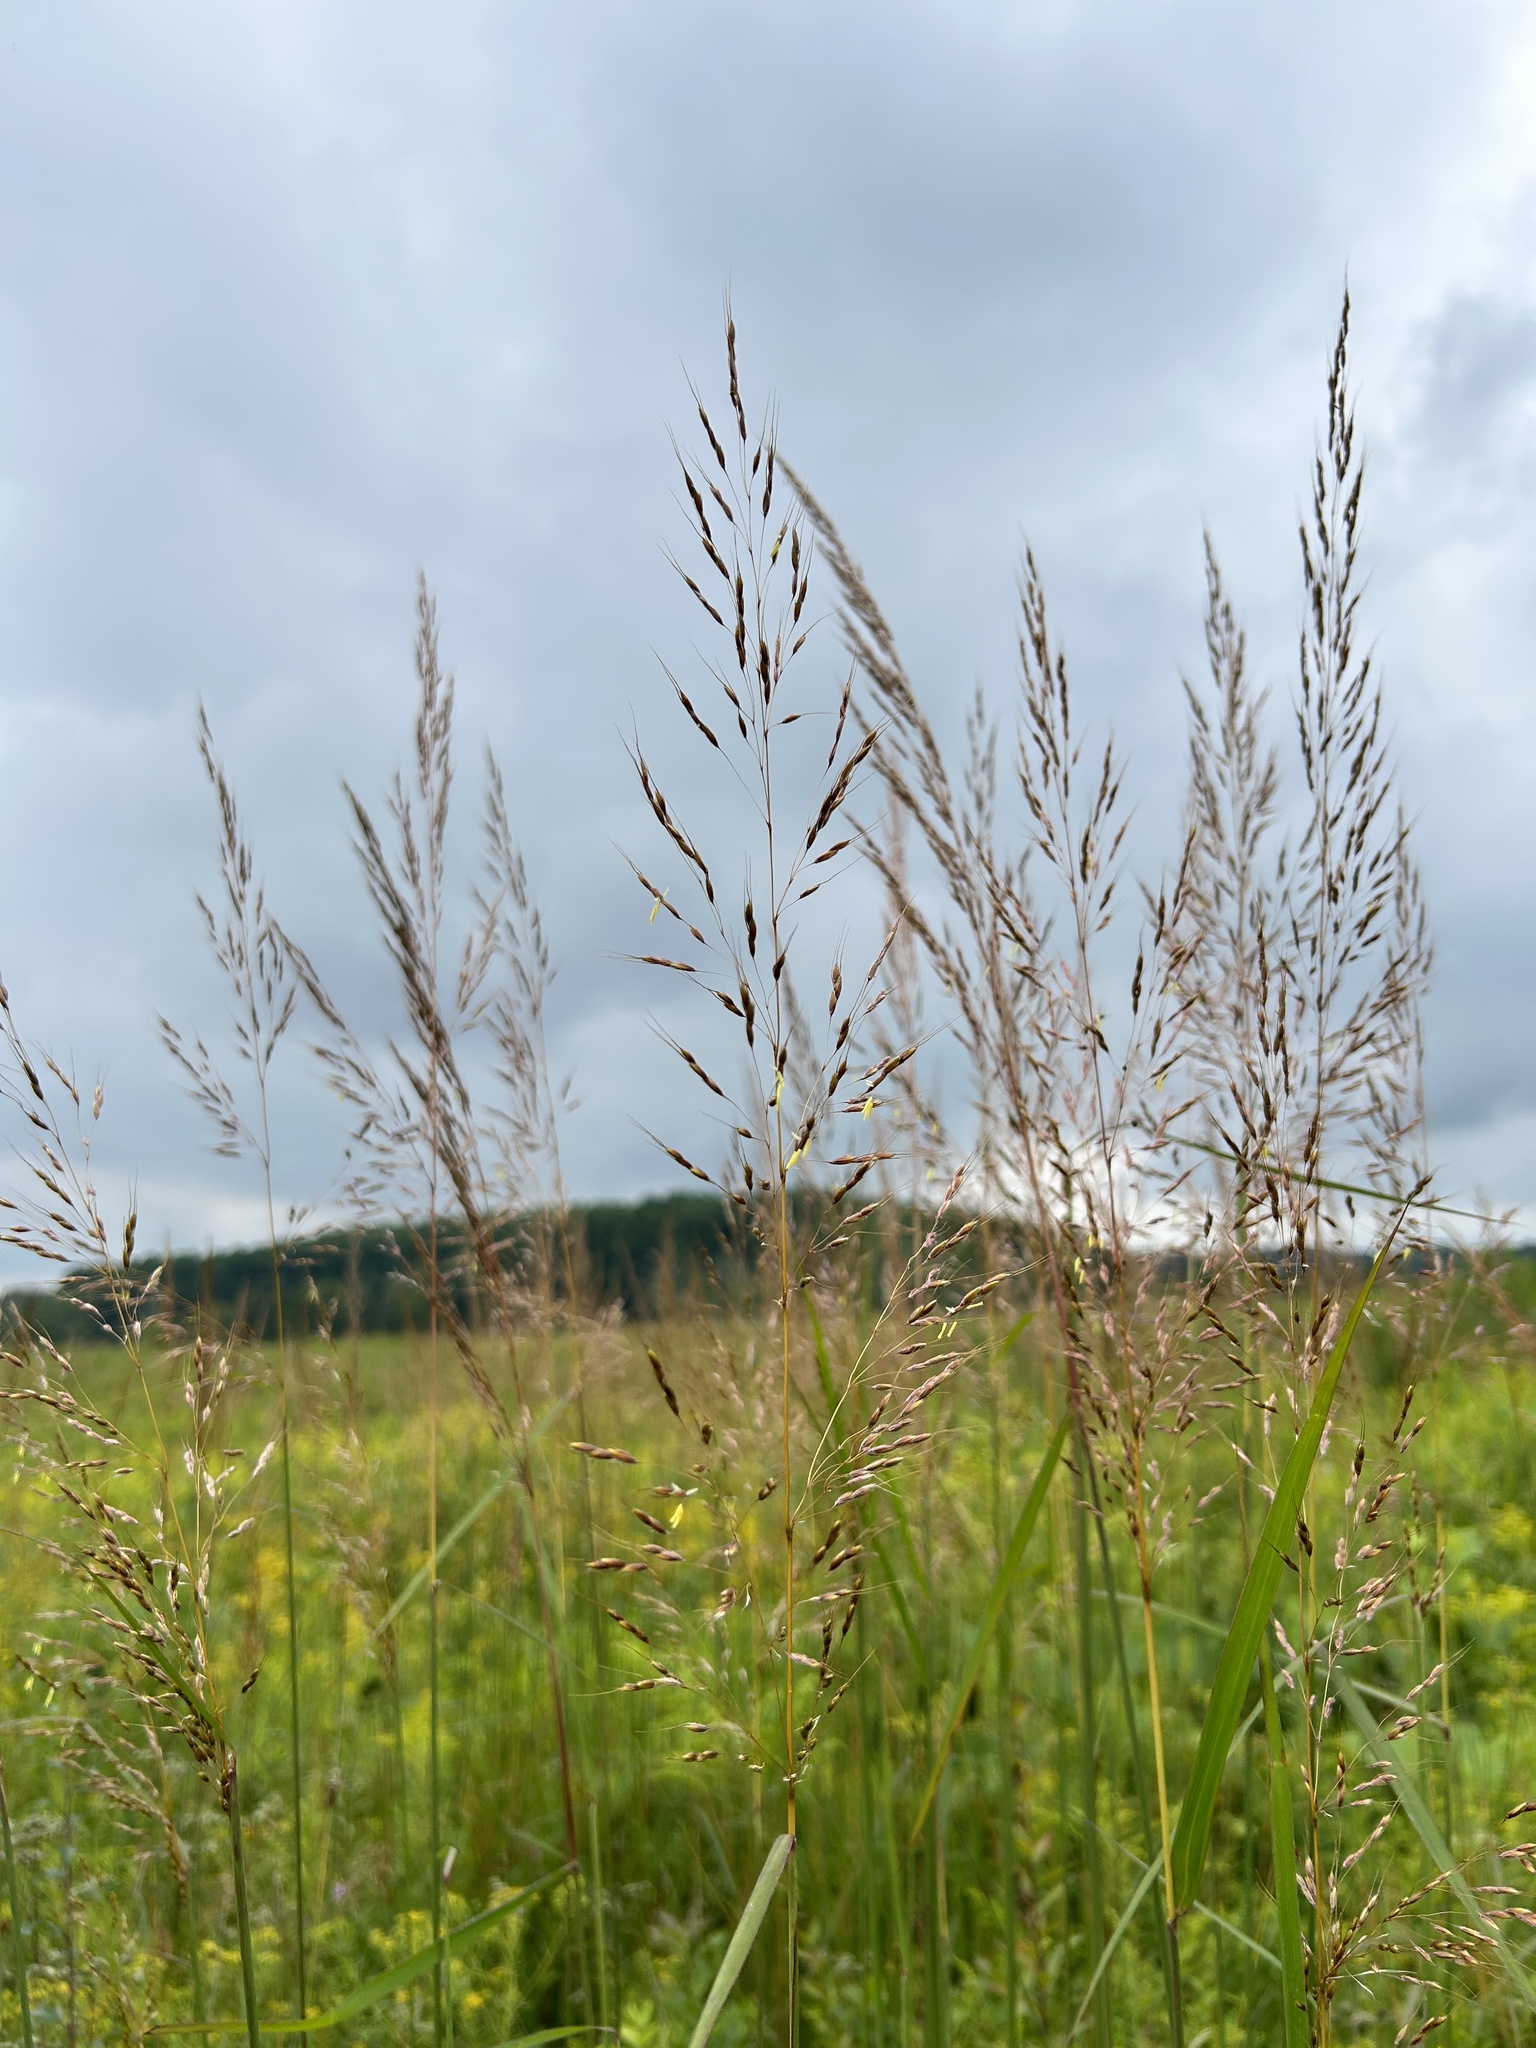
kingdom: Plantae
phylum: Tracheophyta
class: Liliopsida
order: Poales
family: Poaceae
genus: Sorghastrum
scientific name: Sorghastrum nutans
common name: Indian grass
